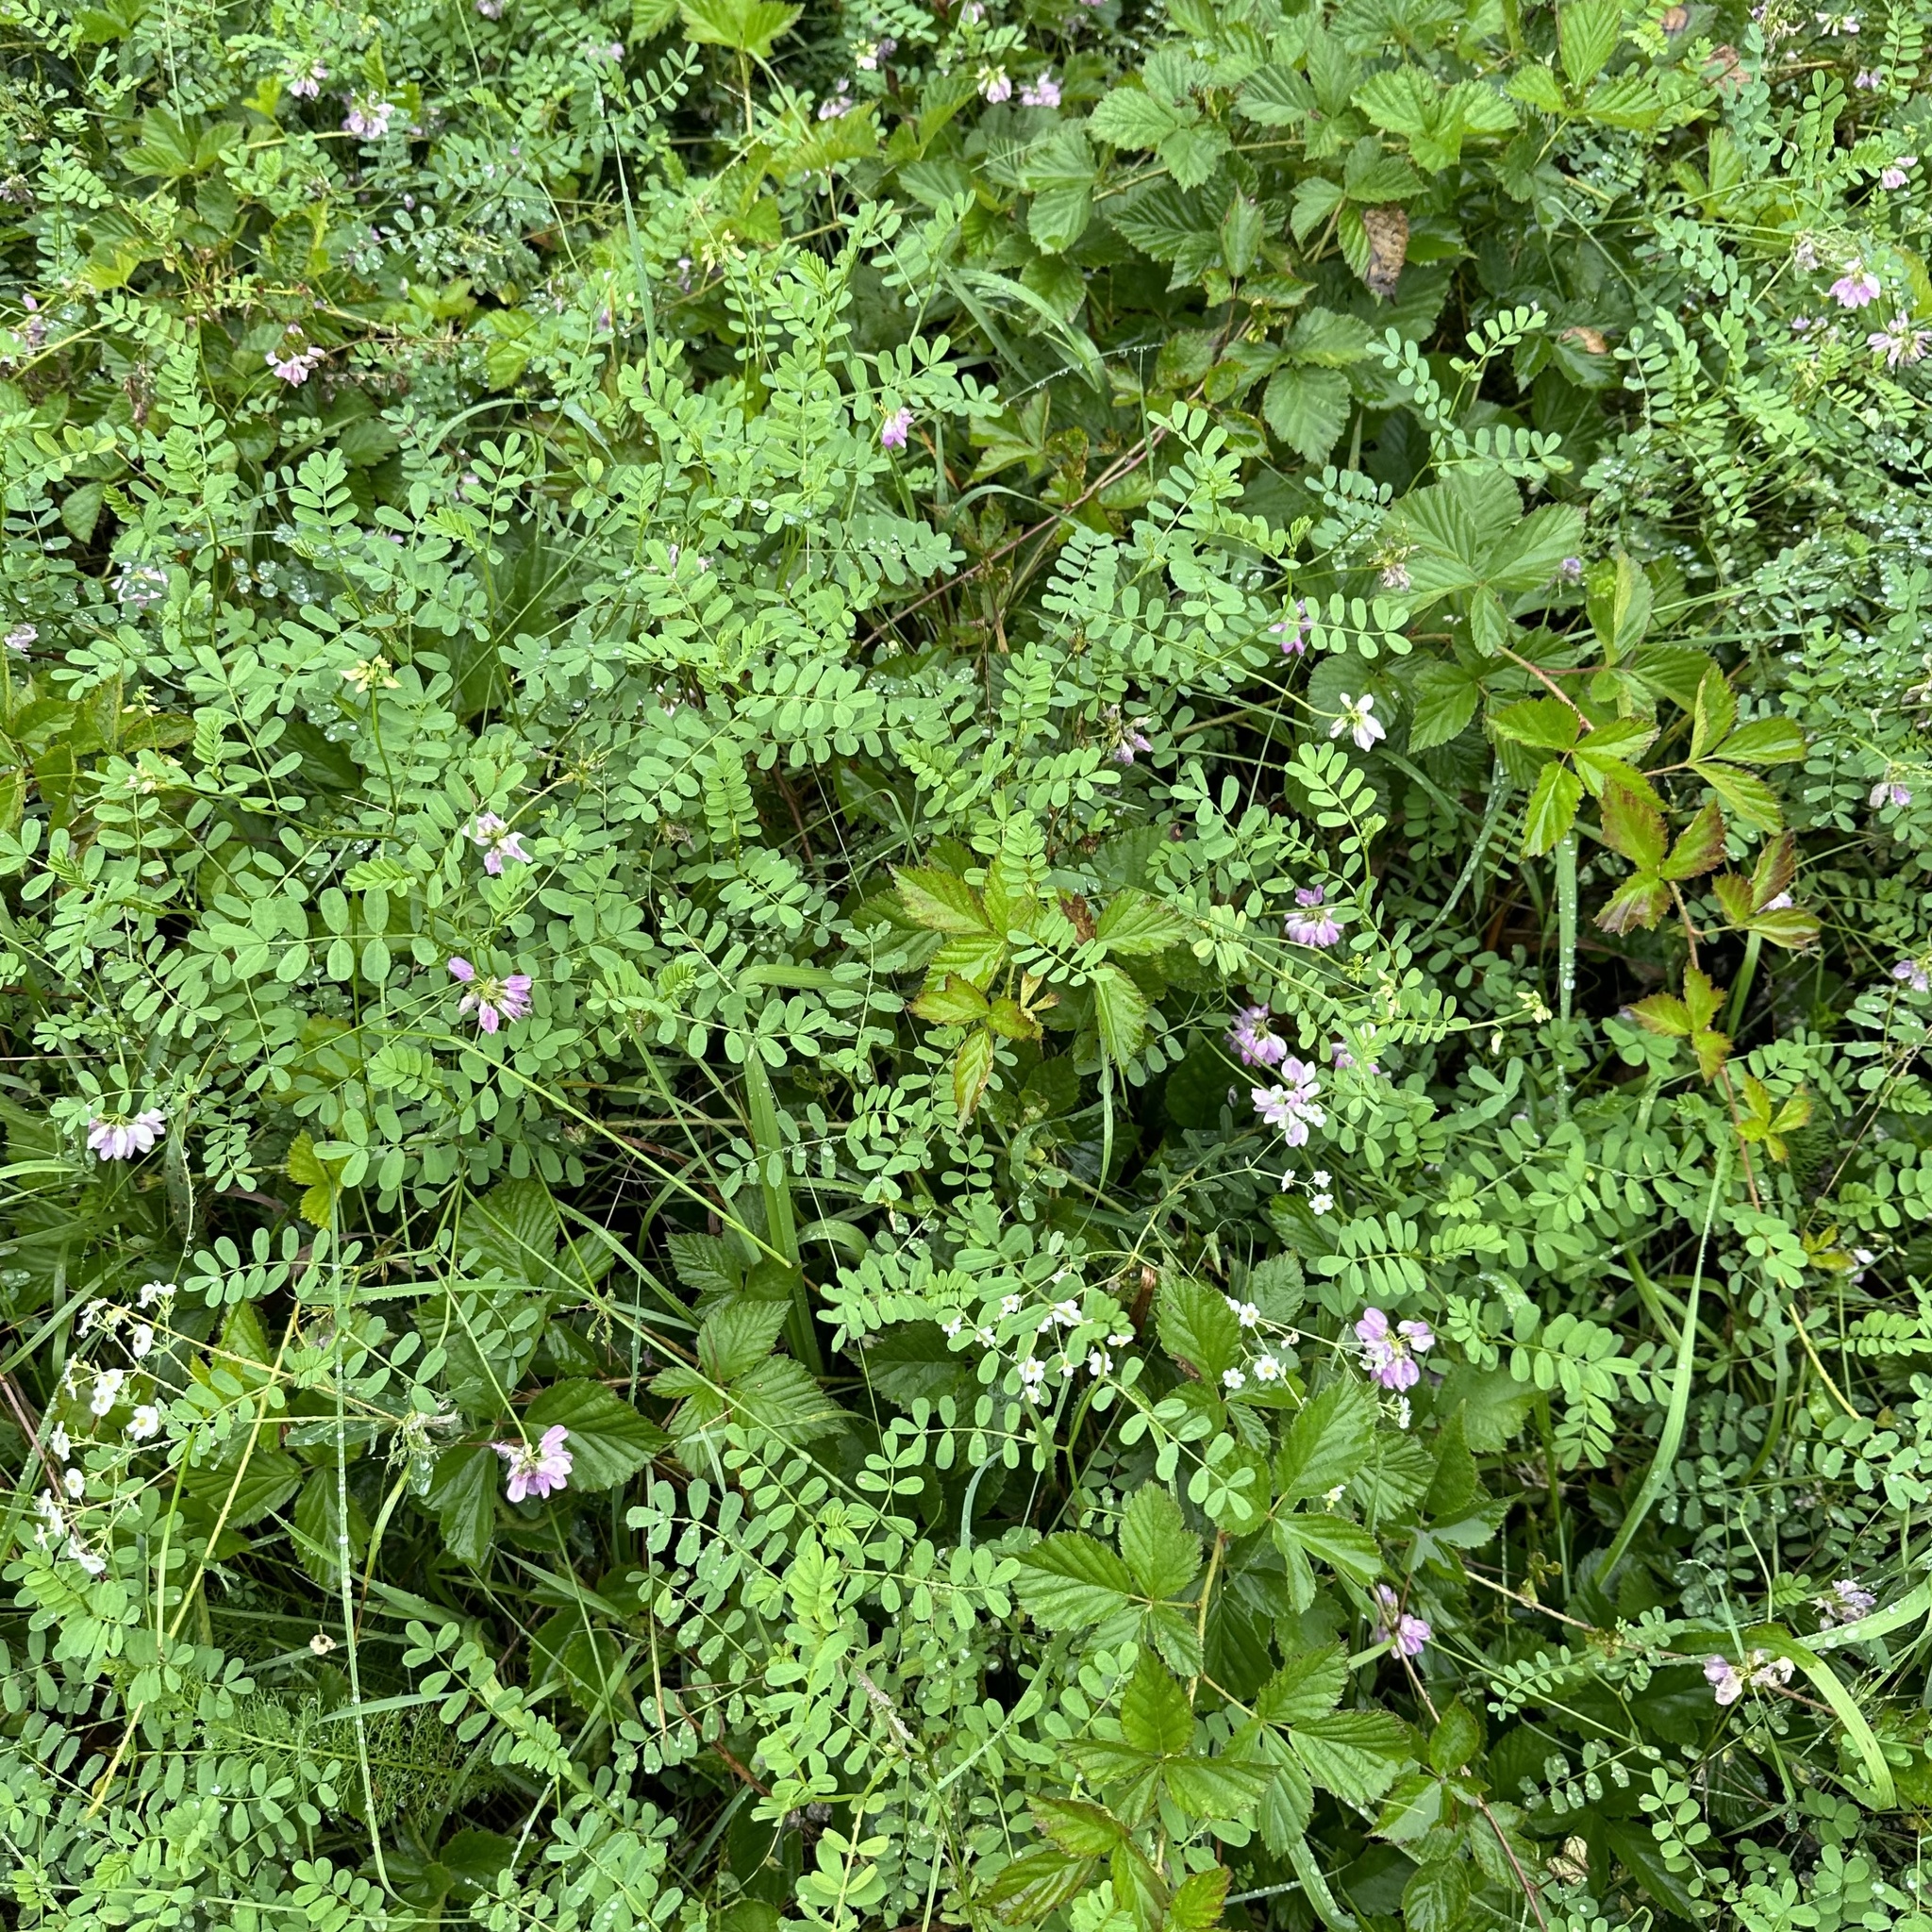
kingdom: Plantae
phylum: Tracheophyta
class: Magnoliopsida
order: Fabales
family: Fabaceae
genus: Coronilla
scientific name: Coronilla varia
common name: Crownvetch
